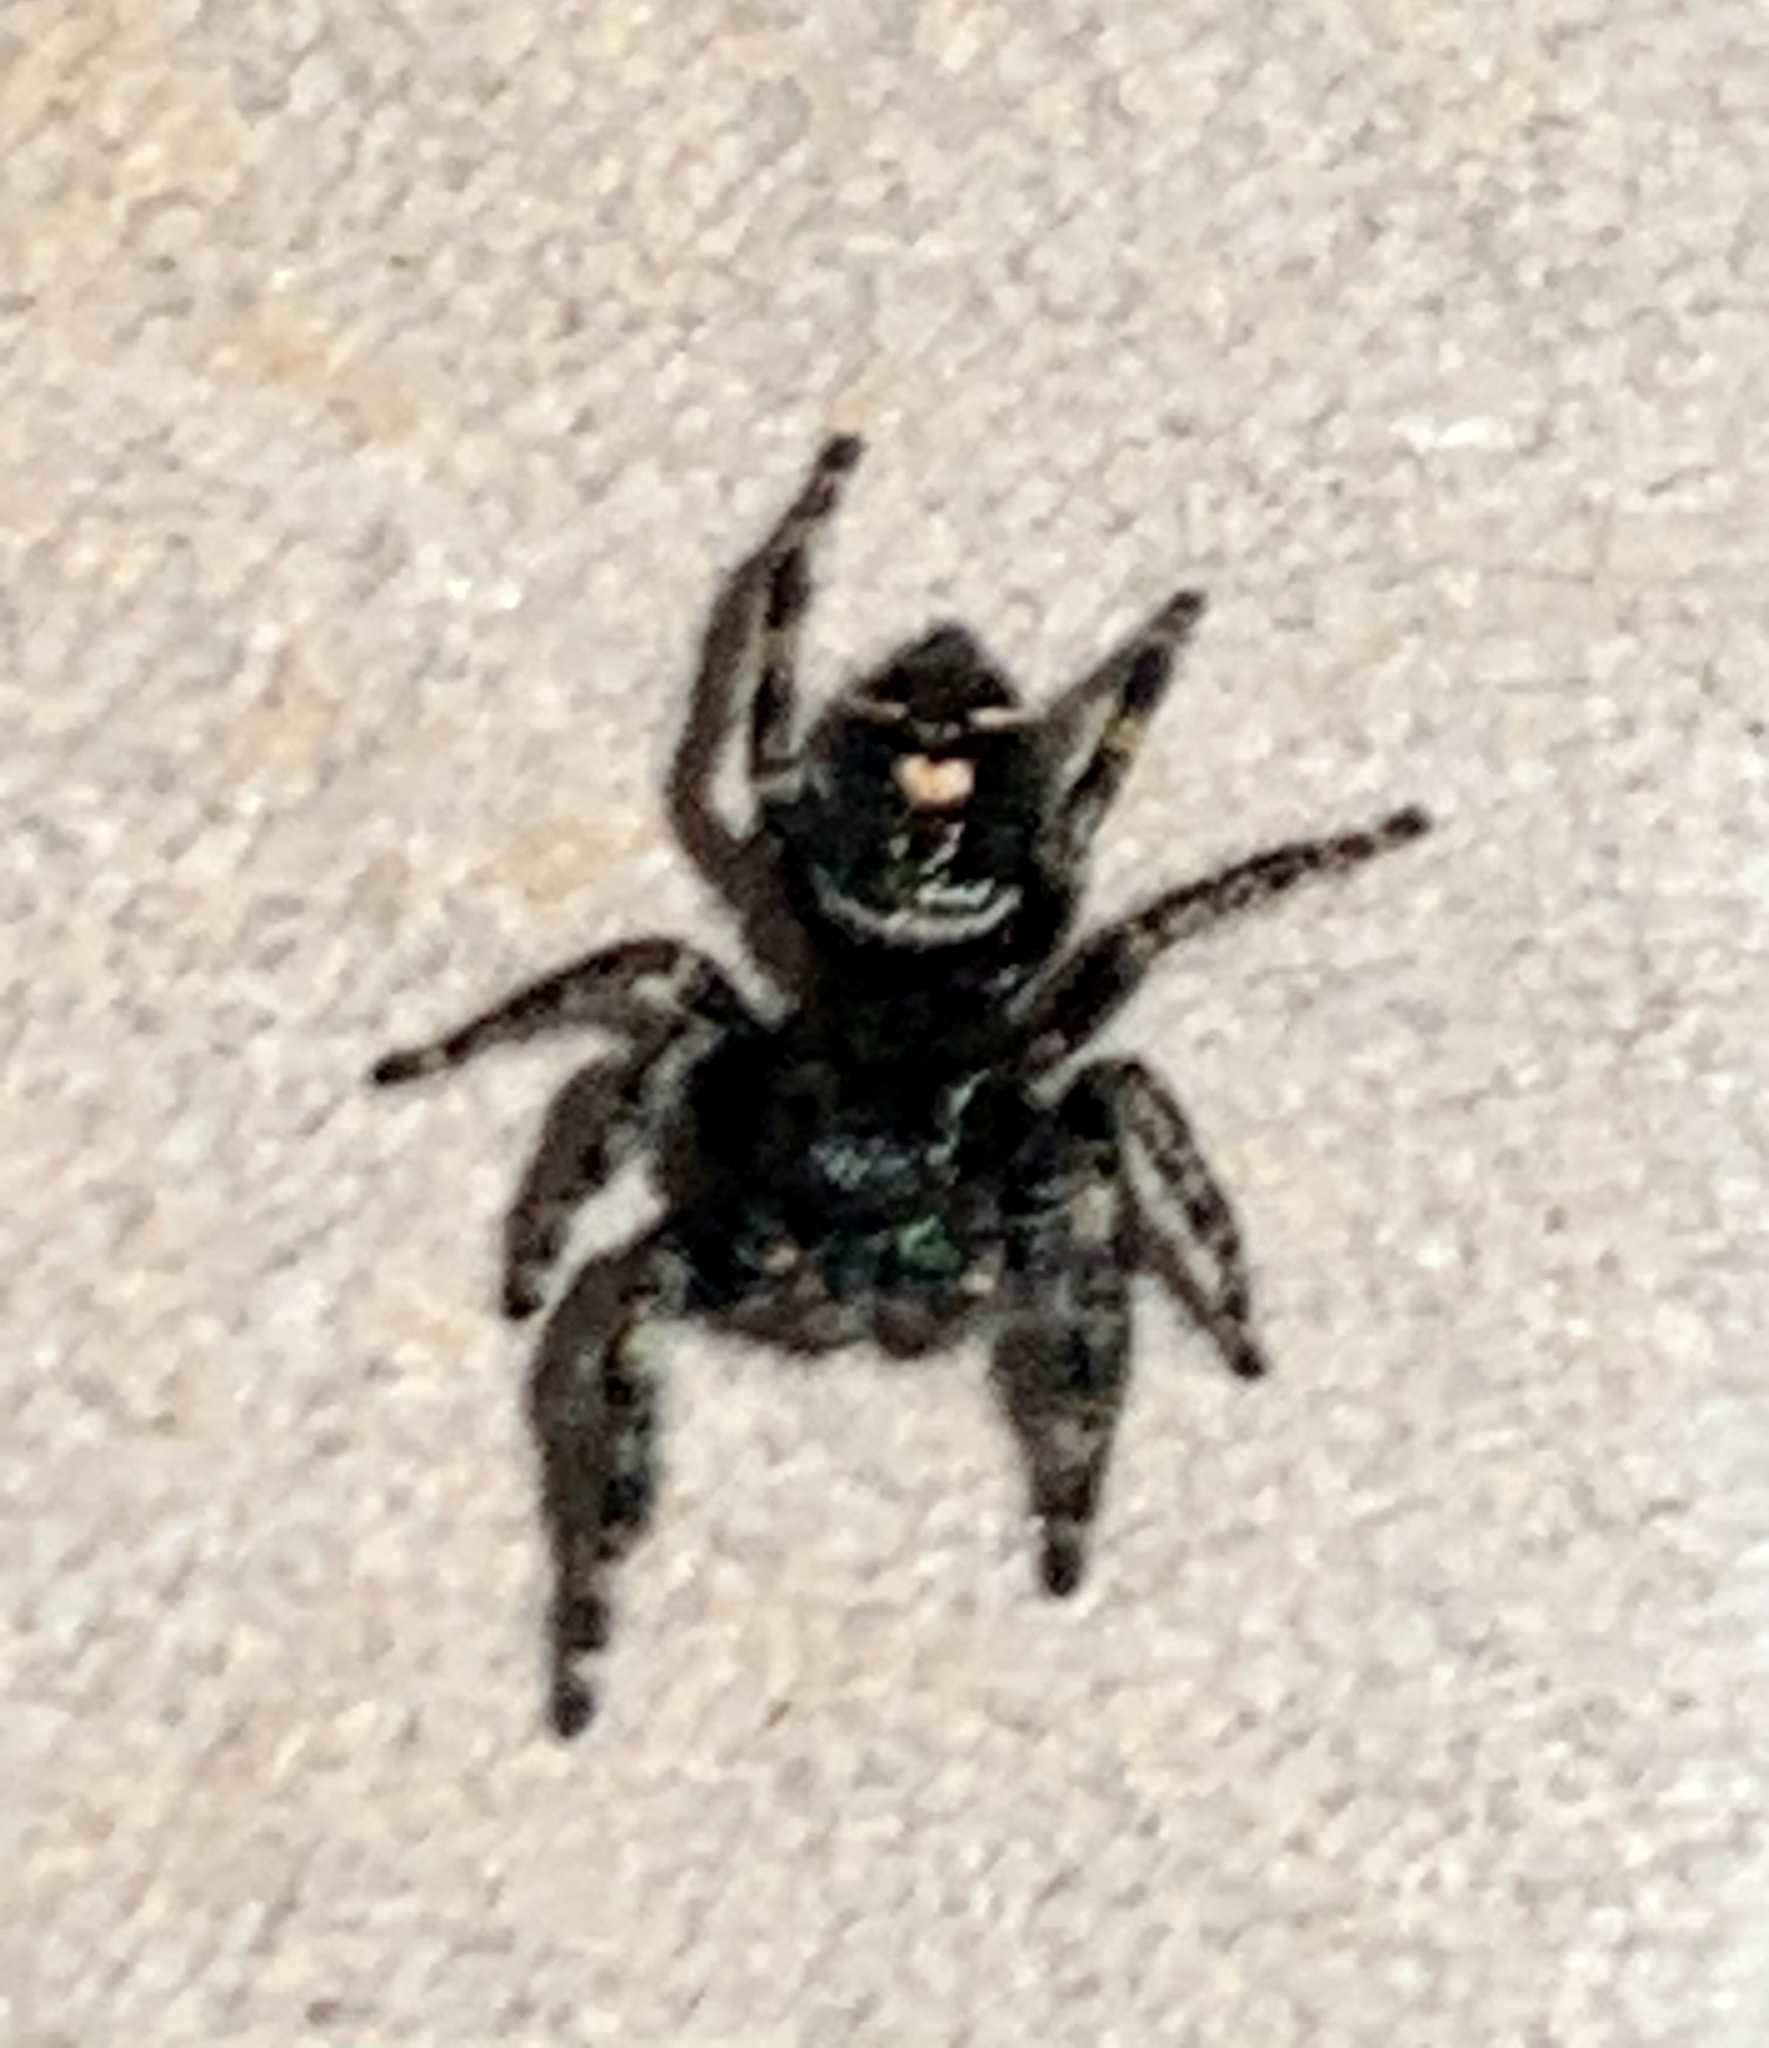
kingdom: Animalia
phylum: Arthropoda
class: Arachnida
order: Araneae
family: Salticidae
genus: Phidippus
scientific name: Phidippus audax
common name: Bold jumper
